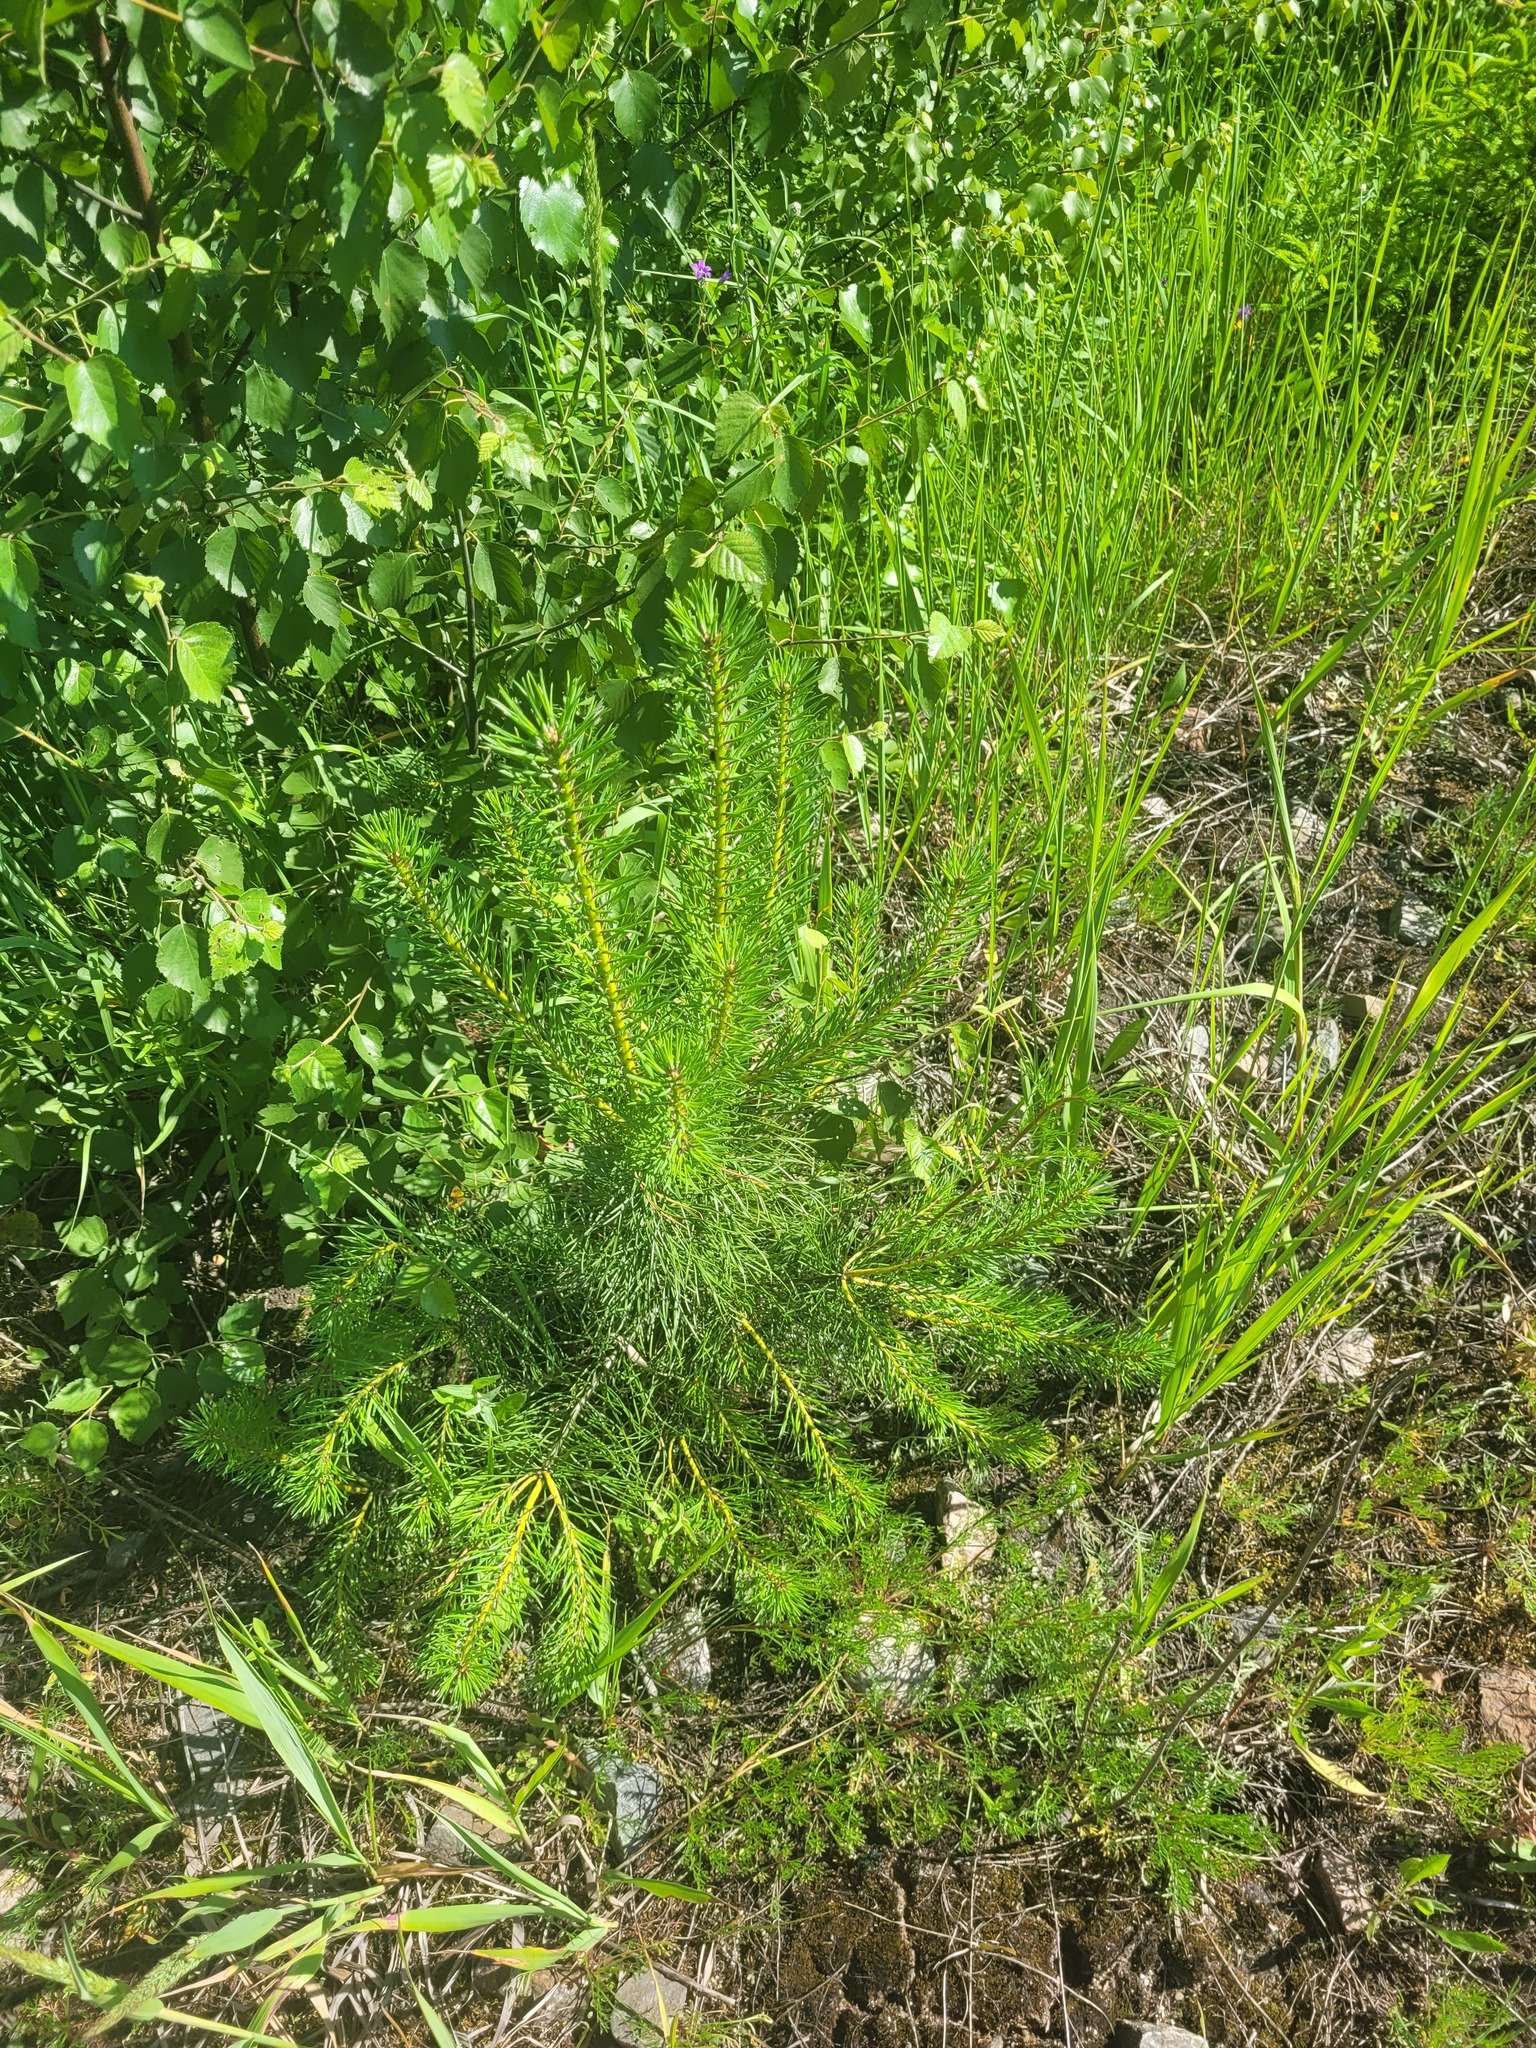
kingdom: Plantae
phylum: Tracheophyta
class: Pinopsida
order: Pinales
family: Pinaceae
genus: Pinus
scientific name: Pinus sylvestris
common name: Scots pine
